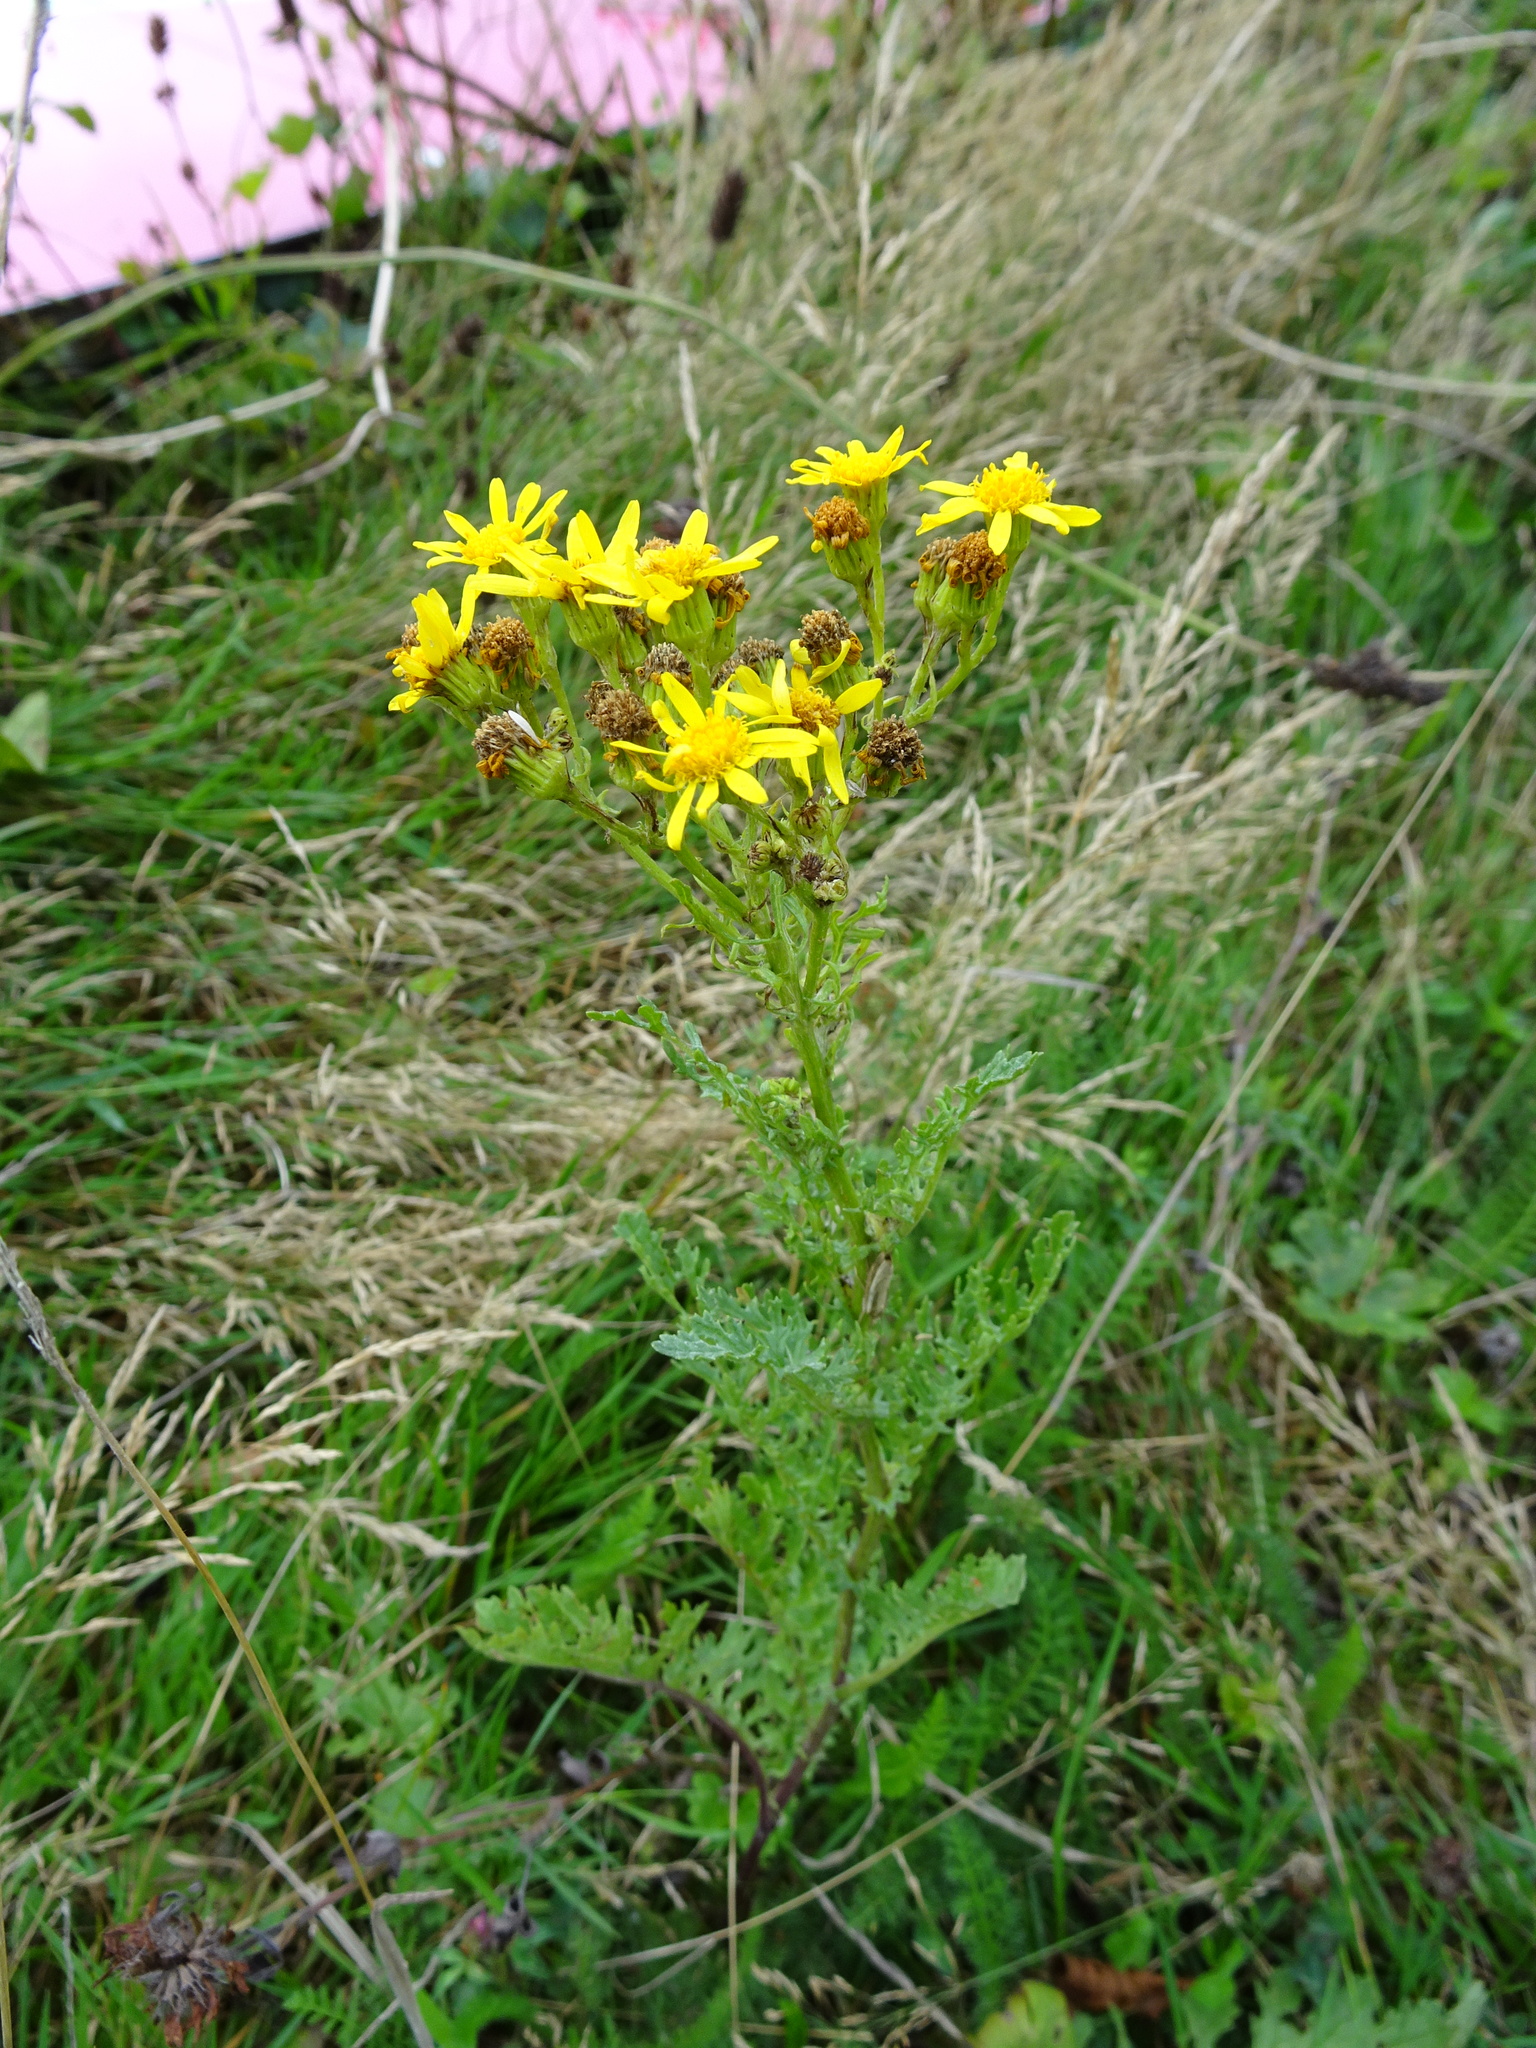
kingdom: Plantae
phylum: Tracheophyta
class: Magnoliopsida
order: Asterales
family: Asteraceae
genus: Jacobaea
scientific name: Jacobaea vulgaris
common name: Stinking willie
